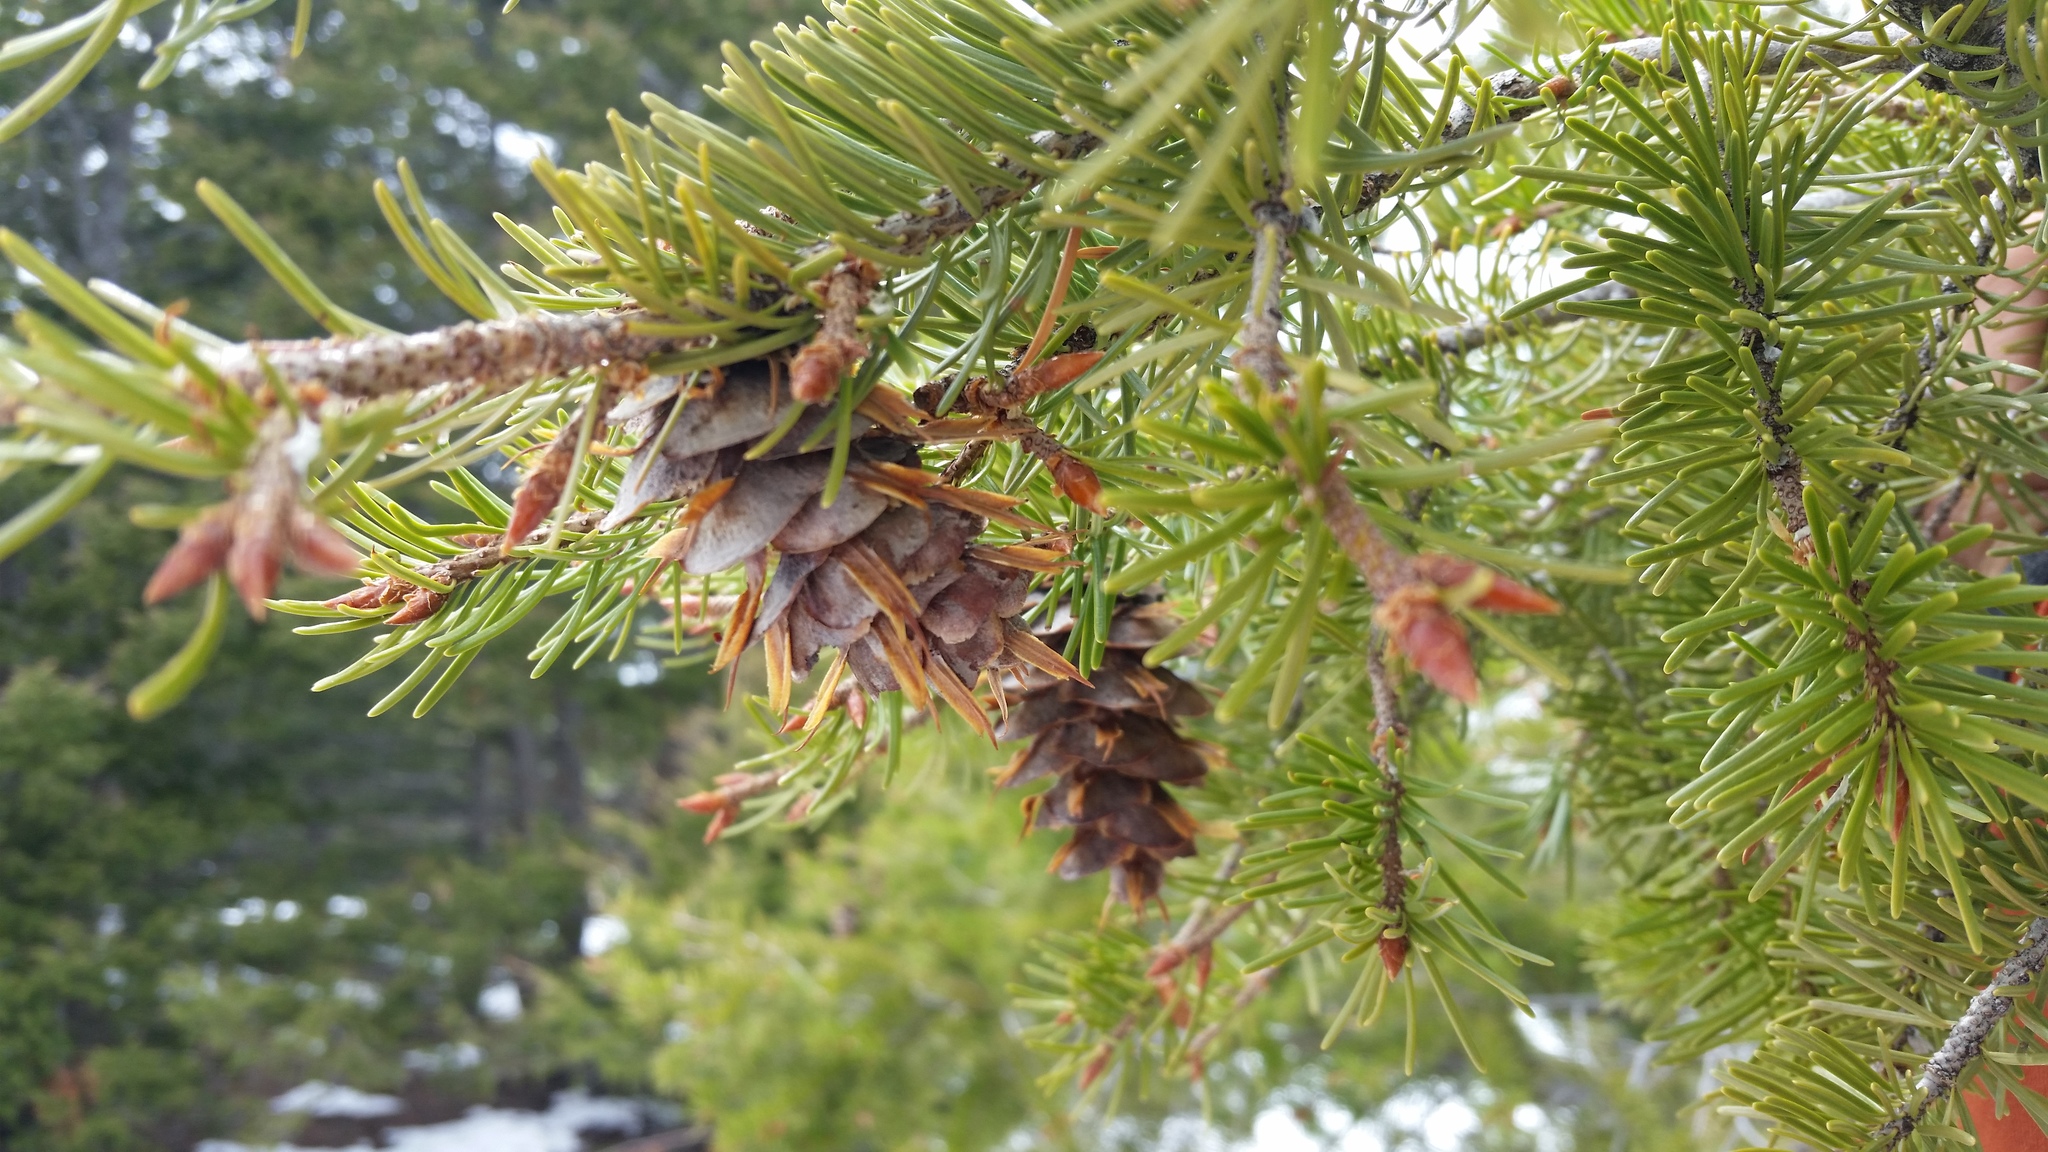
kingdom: Plantae
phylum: Tracheophyta
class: Pinopsida
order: Pinales
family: Pinaceae
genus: Pseudotsuga
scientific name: Pseudotsuga menziesii
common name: Douglas fir
